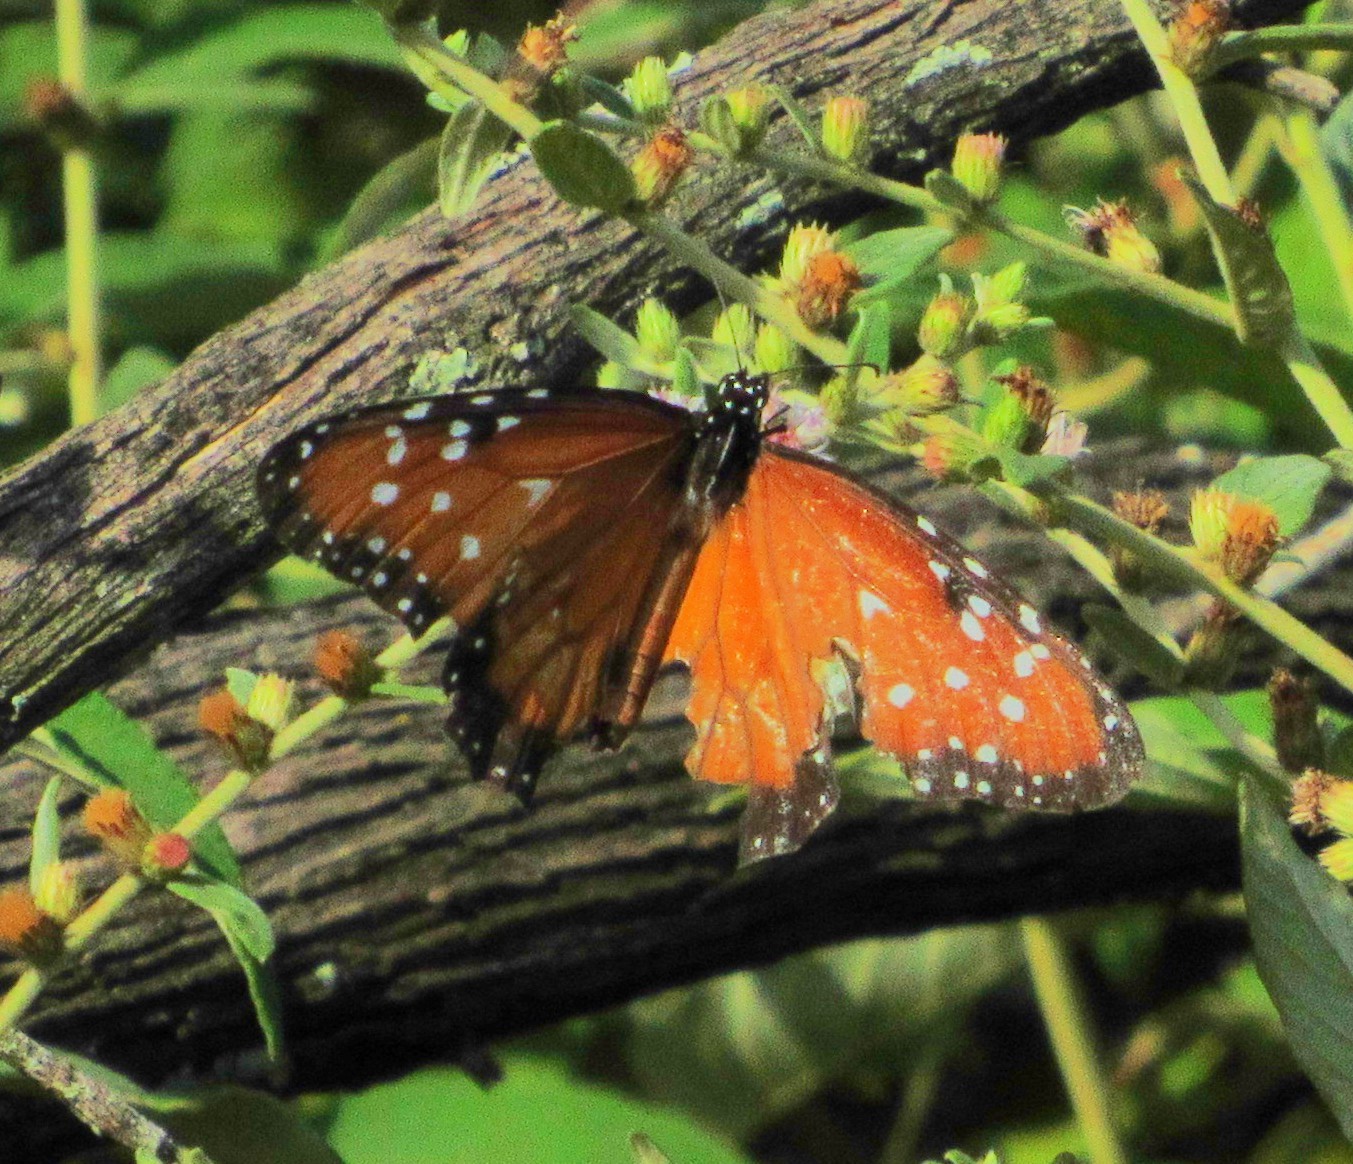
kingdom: Animalia
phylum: Arthropoda
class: Insecta
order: Lepidoptera
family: Nymphalidae
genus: Danaus
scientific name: Danaus gilippus
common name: Queen
